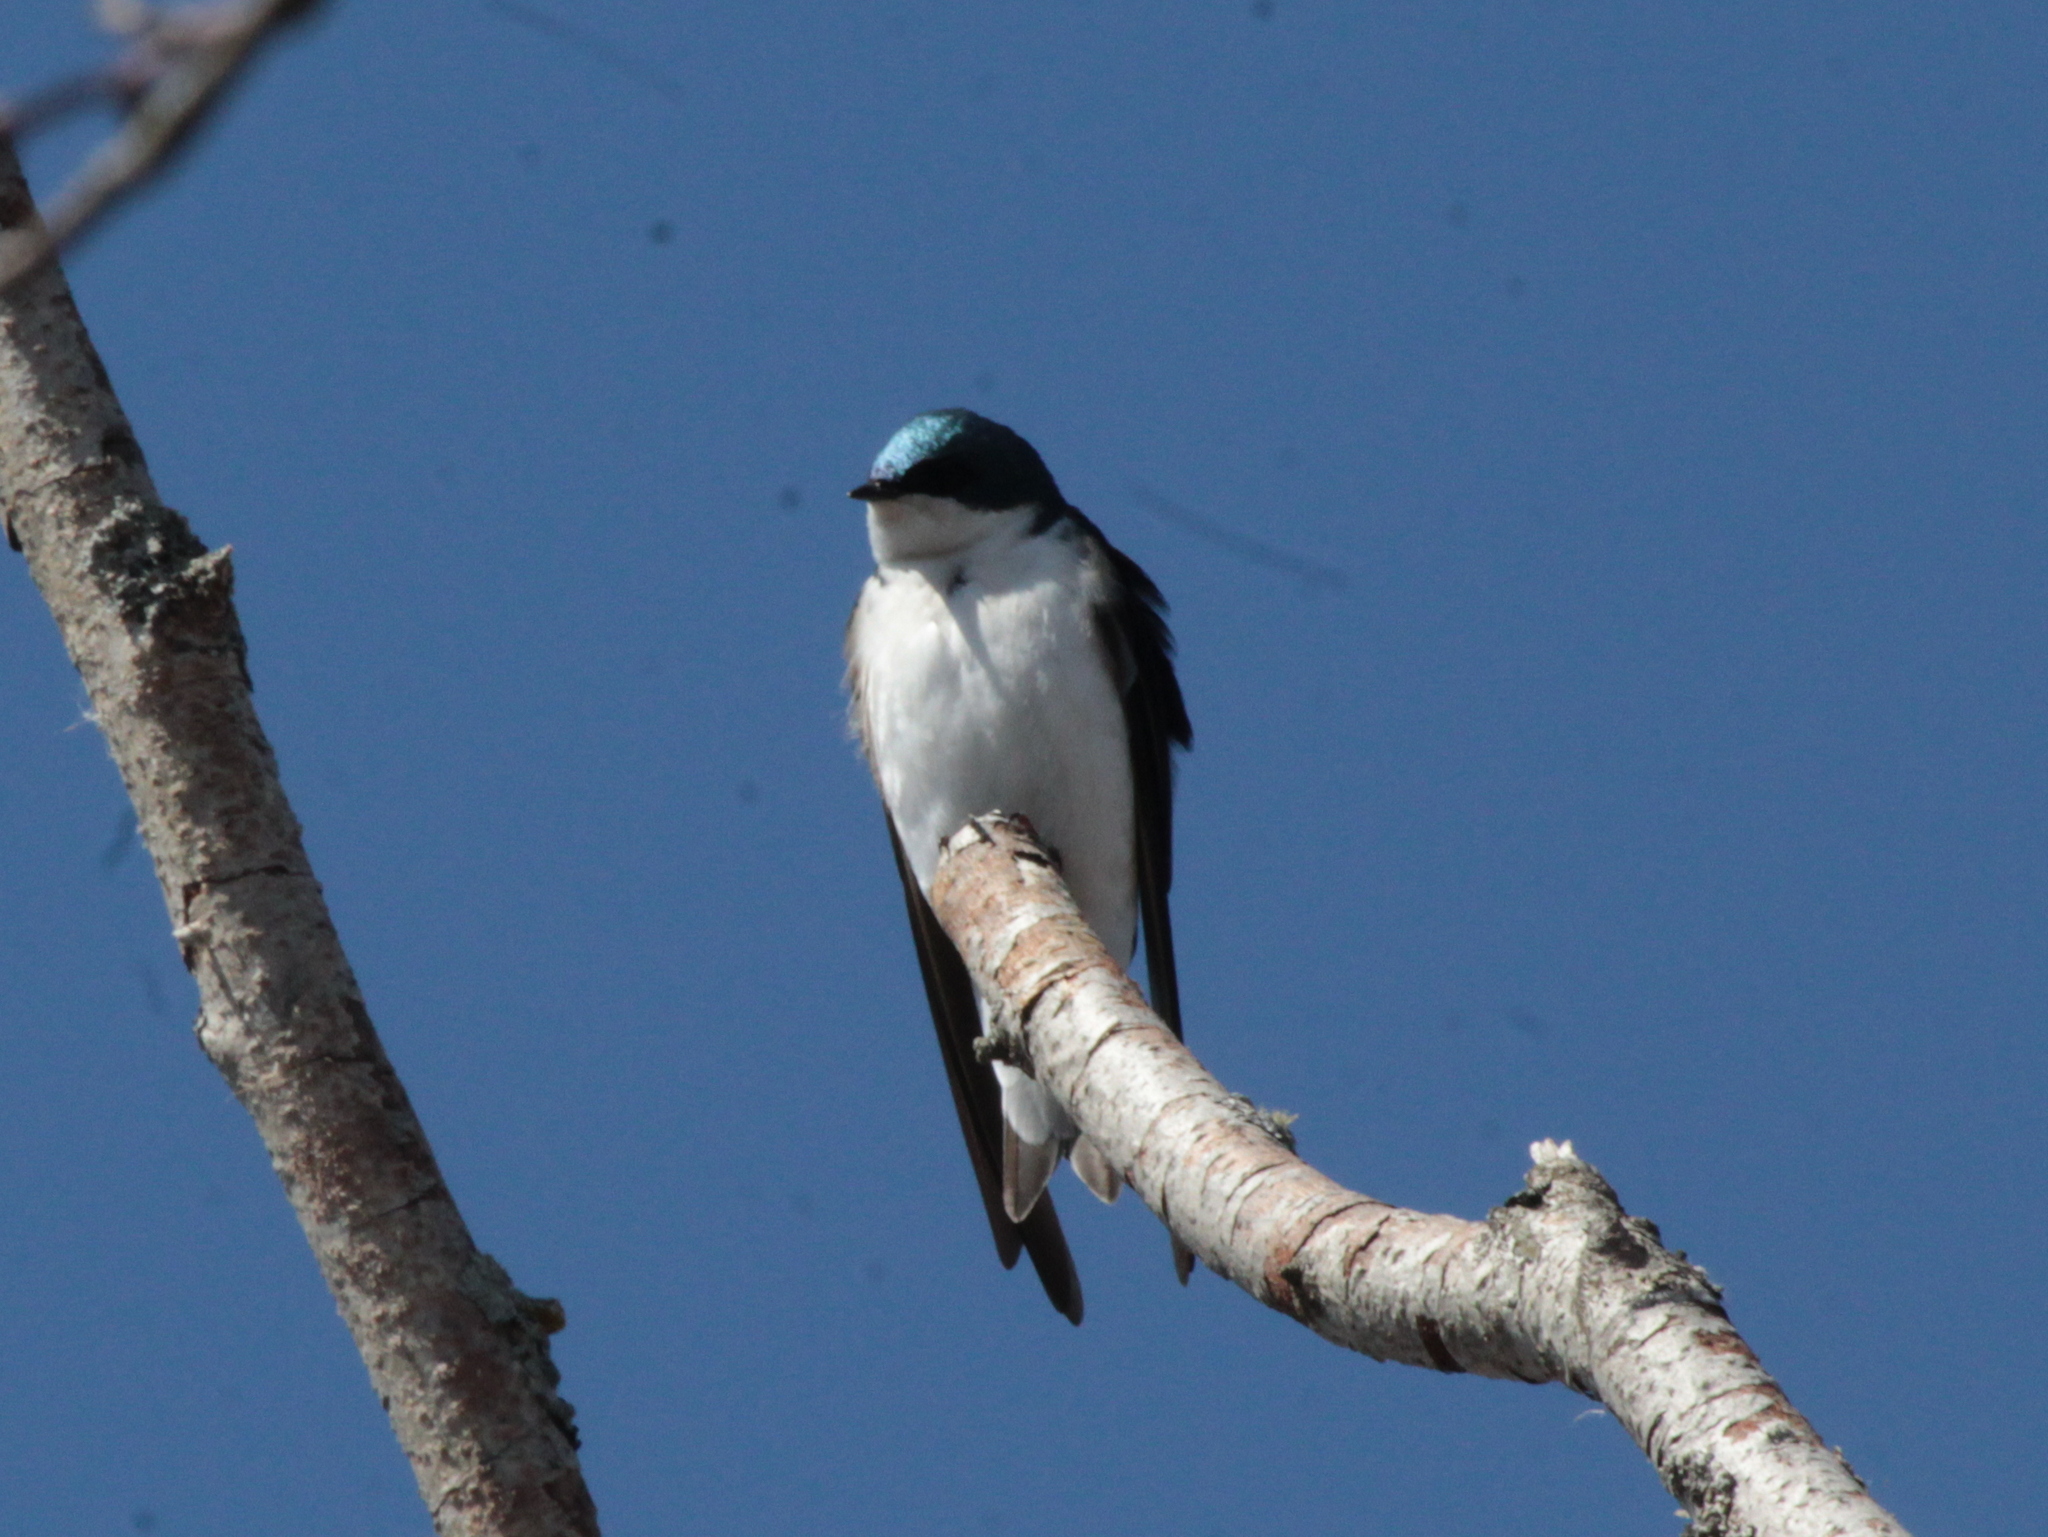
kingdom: Animalia
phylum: Chordata
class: Aves
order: Passeriformes
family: Hirundinidae
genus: Tachycineta
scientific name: Tachycineta bicolor
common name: Tree swallow
